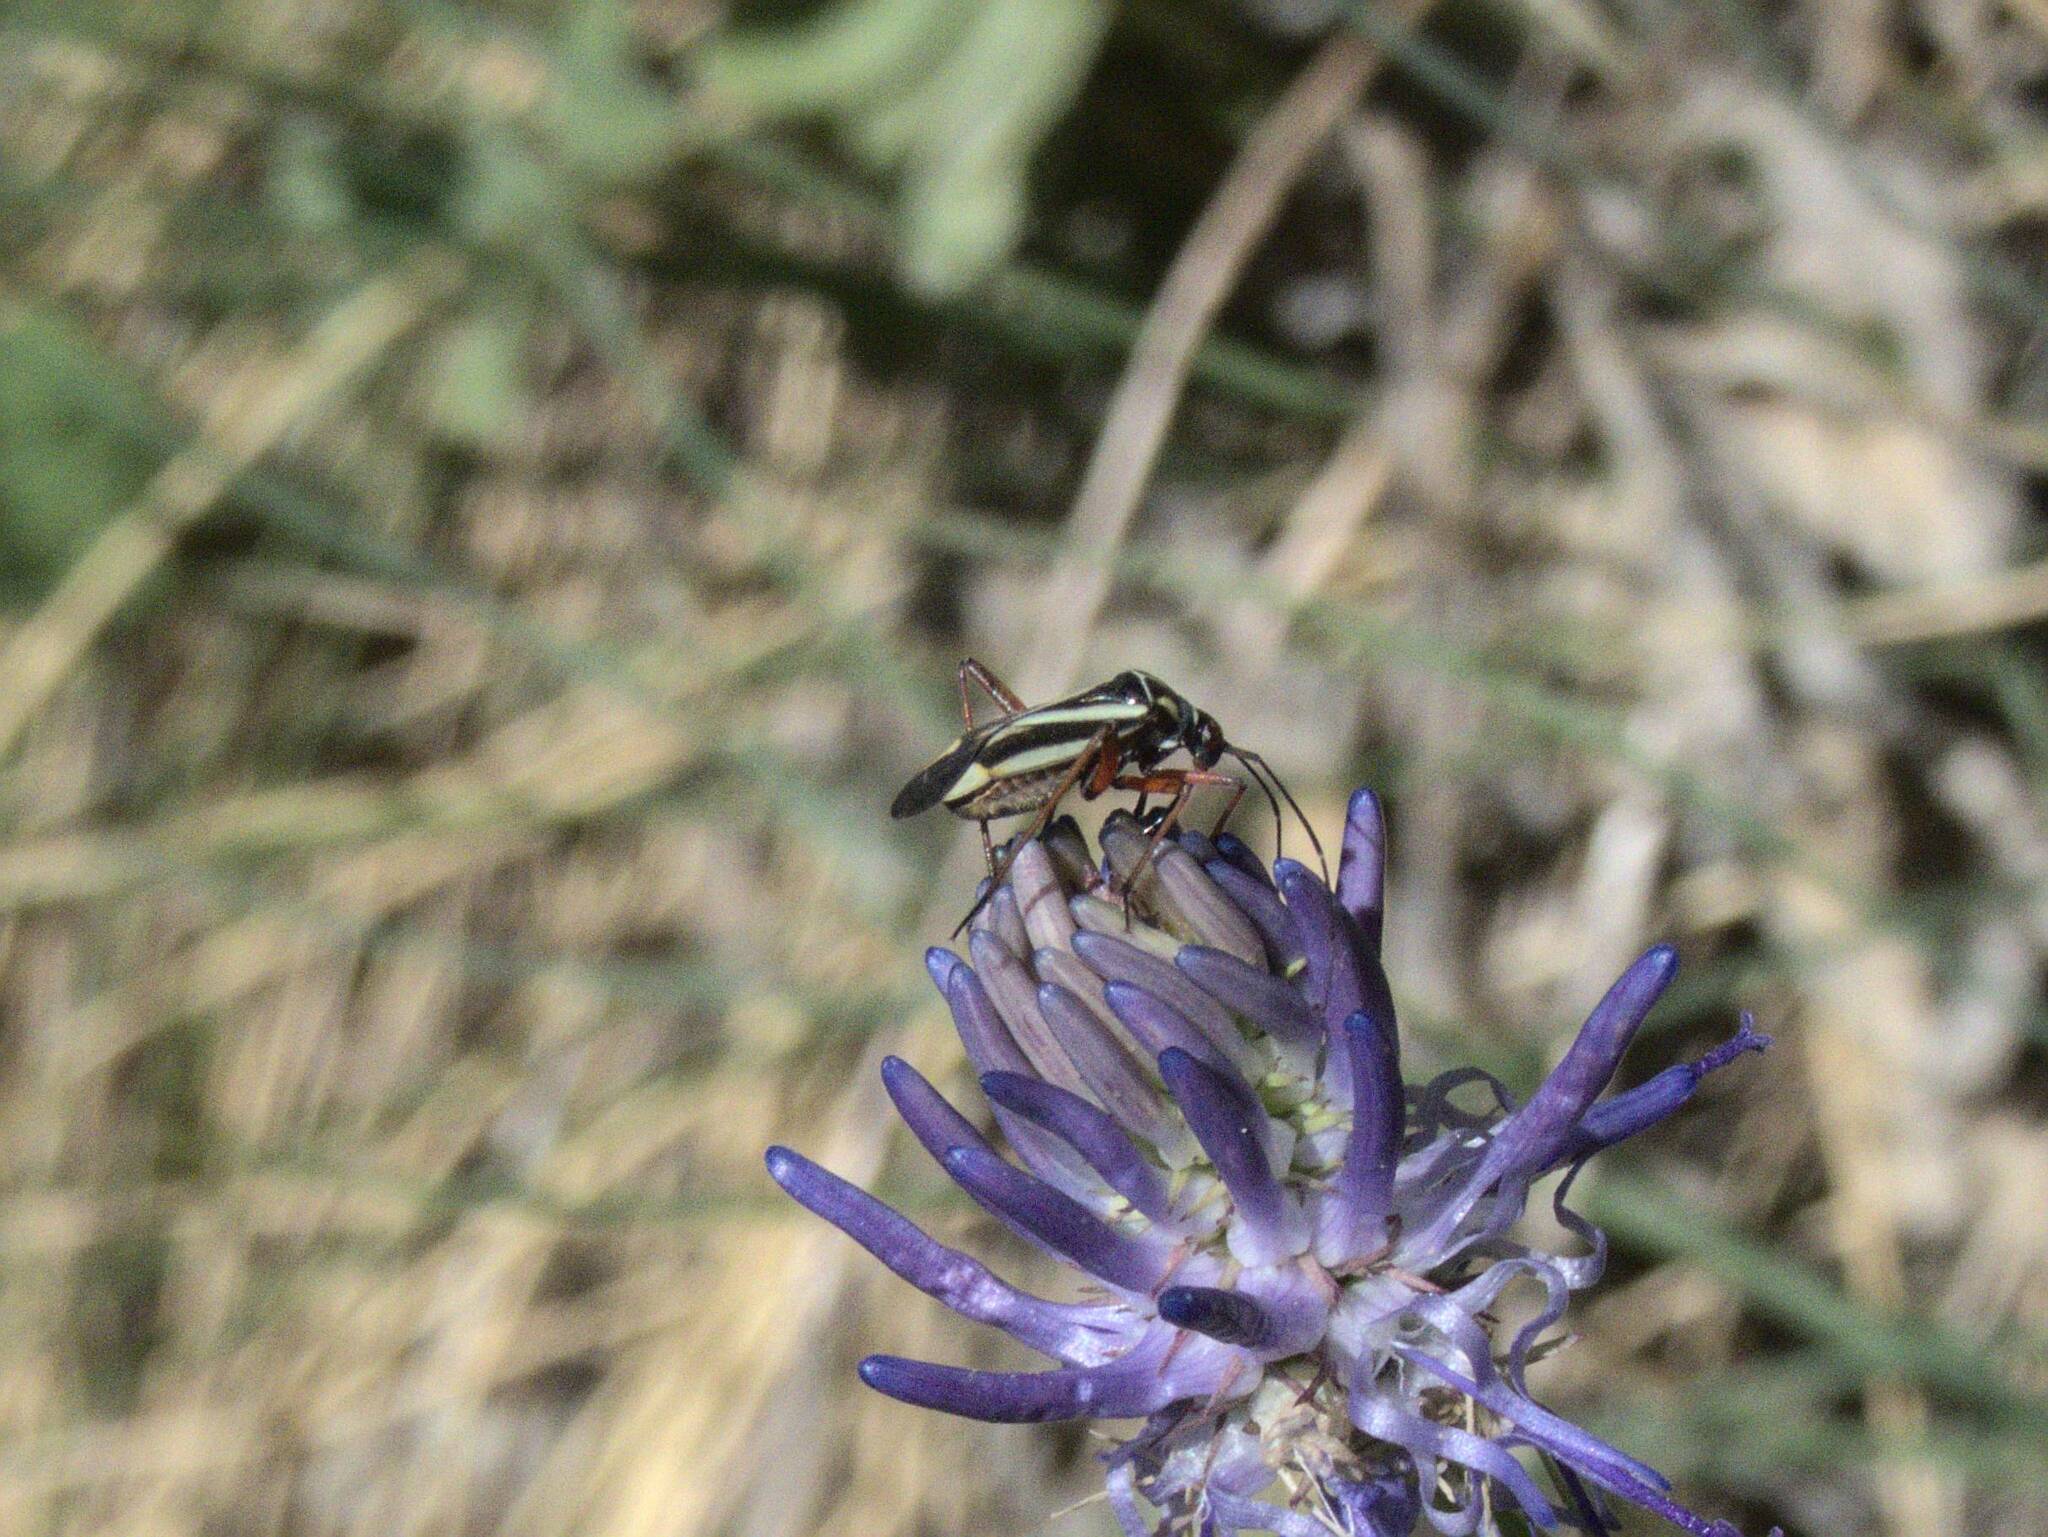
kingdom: Animalia
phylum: Arthropoda
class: Insecta
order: Hemiptera
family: Miridae
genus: Hadrodemus
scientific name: Hadrodemus m-flavum
